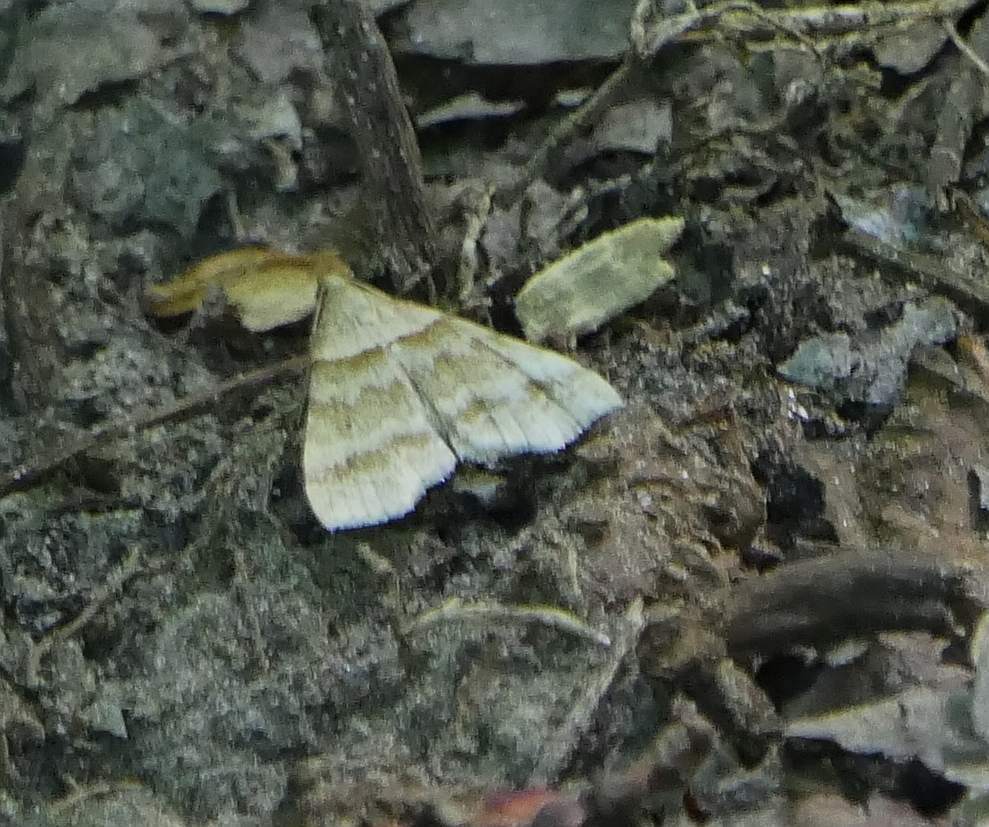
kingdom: Animalia
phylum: Arthropoda
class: Insecta
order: Lepidoptera
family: Erebidae
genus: Phaeolita
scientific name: Phaeolita pyramusalis
